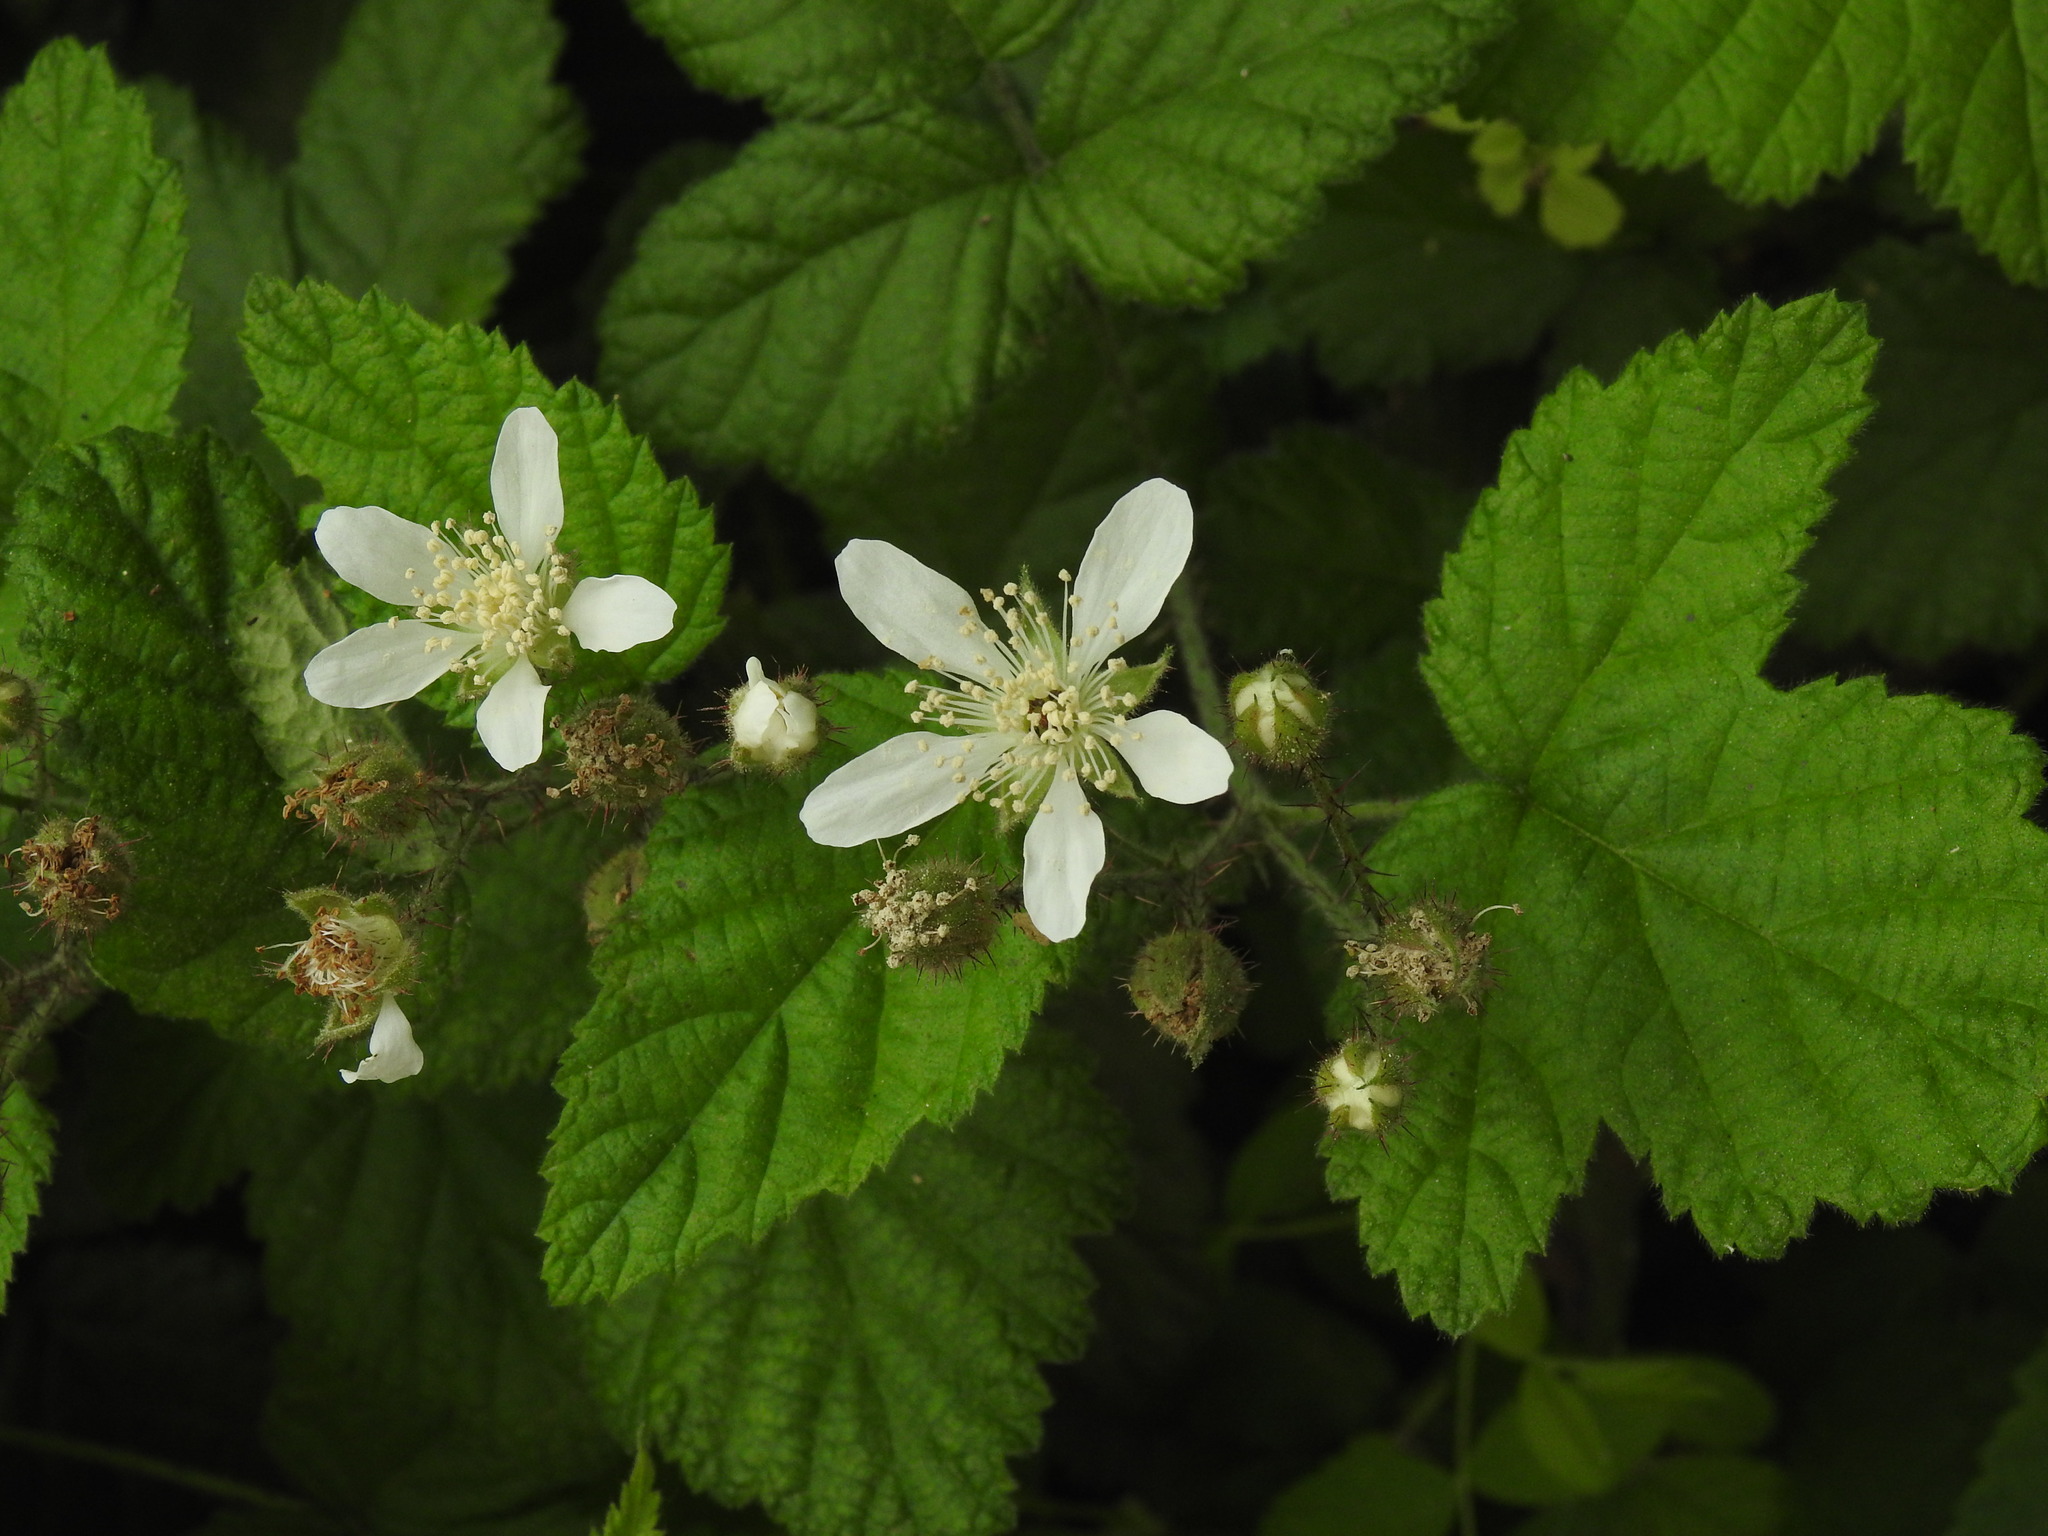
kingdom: Plantae
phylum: Tracheophyta
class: Magnoliopsida
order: Rosales
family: Rosaceae
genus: Rubus
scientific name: Rubus ursinus
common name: Pacific blackberry
